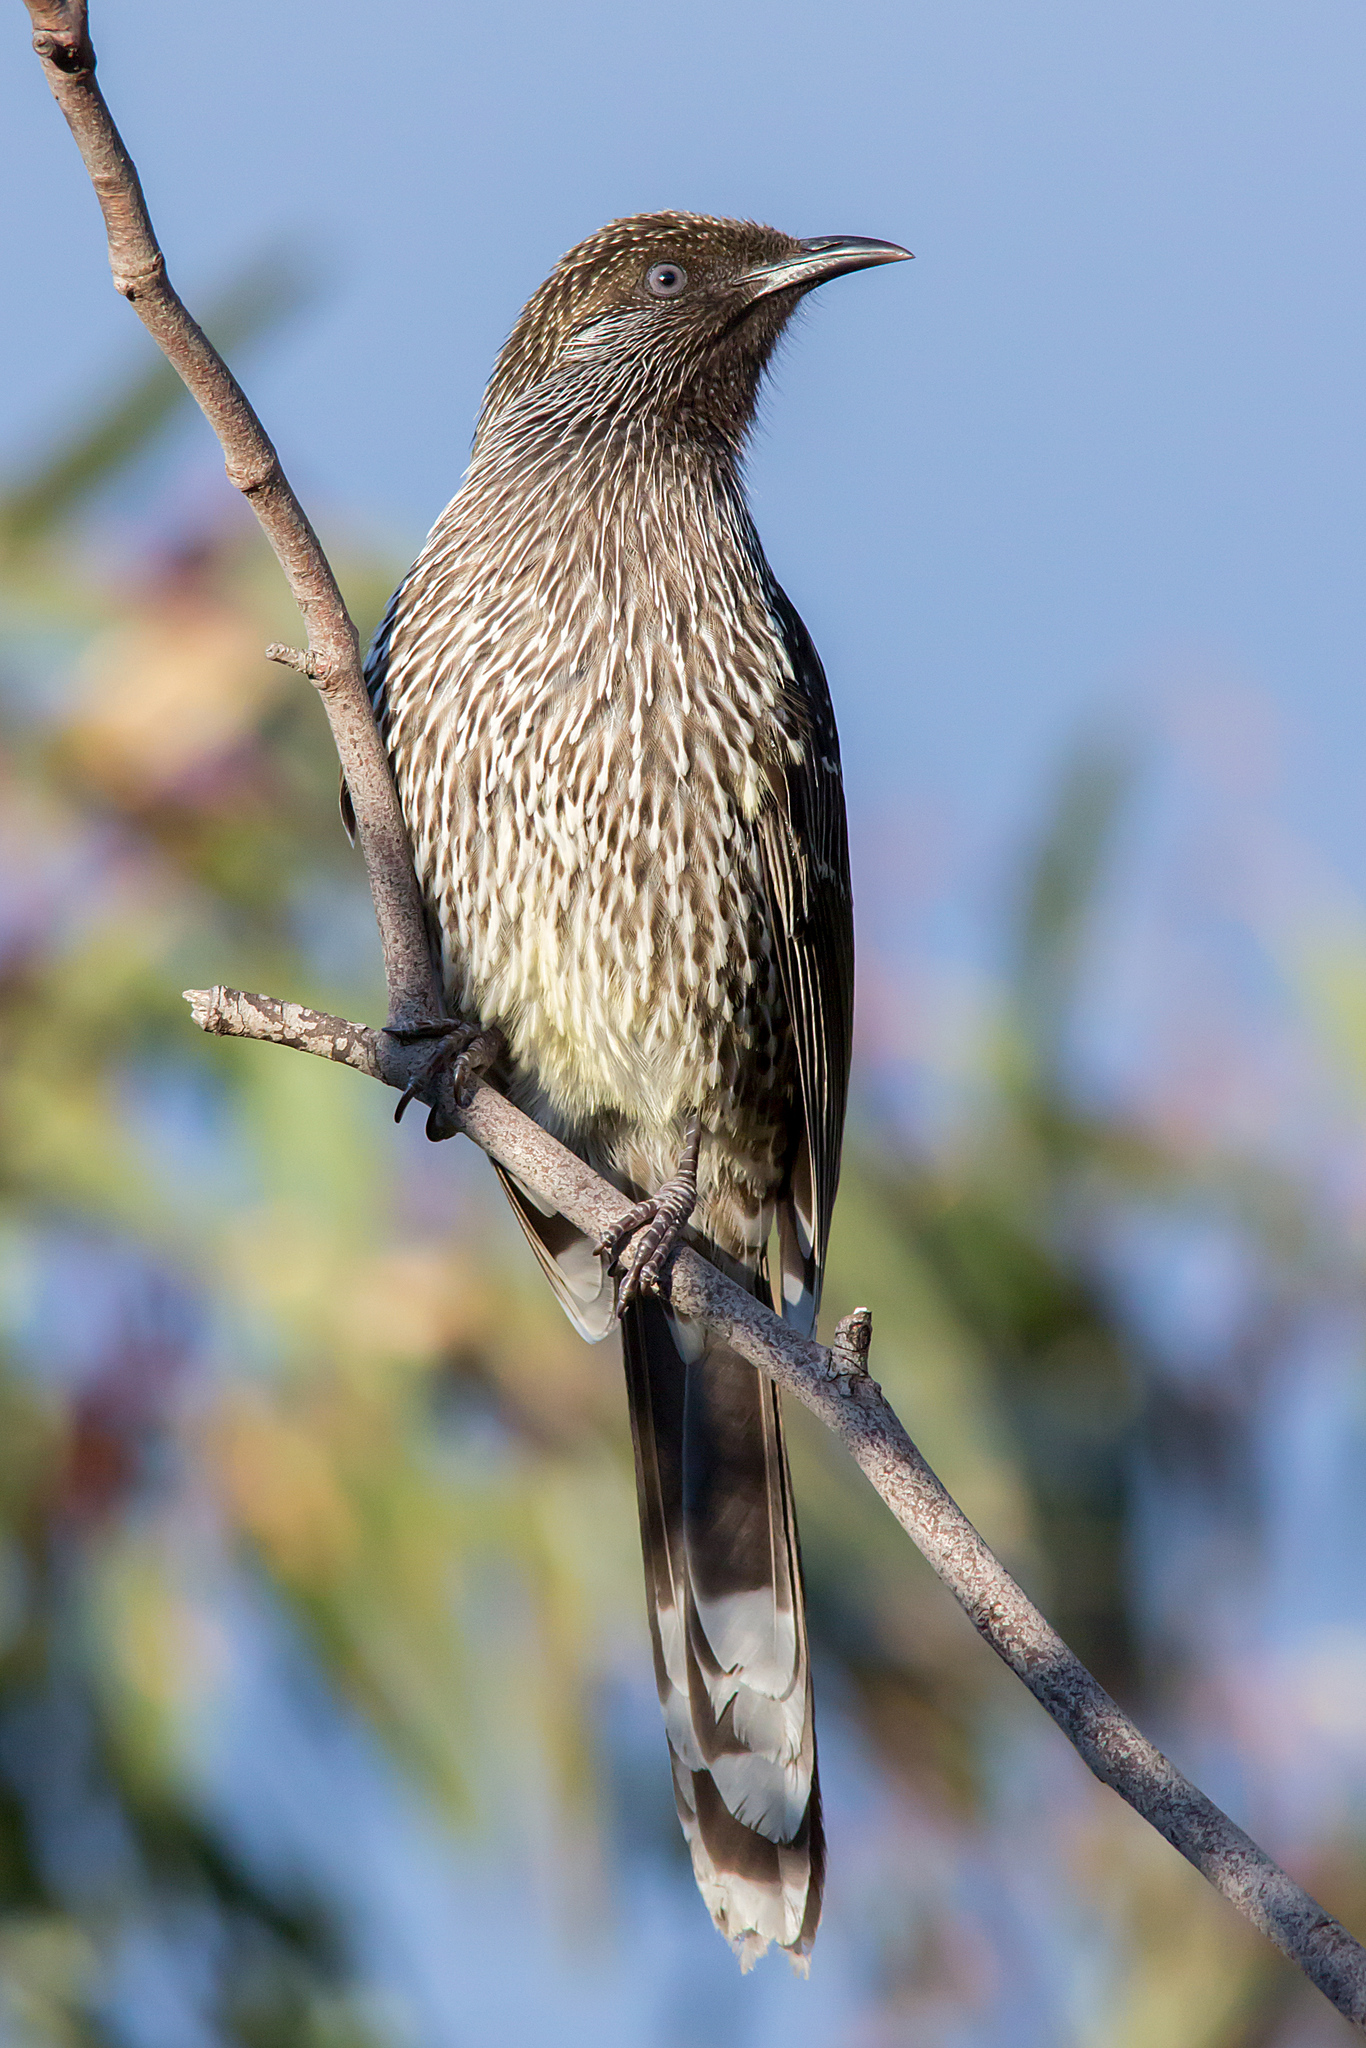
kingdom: Animalia
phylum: Chordata
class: Aves
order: Passeriformes
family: Meliphagidae
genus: Anthochaera
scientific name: Anthochaera chrysoptera
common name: Little wattlebird
